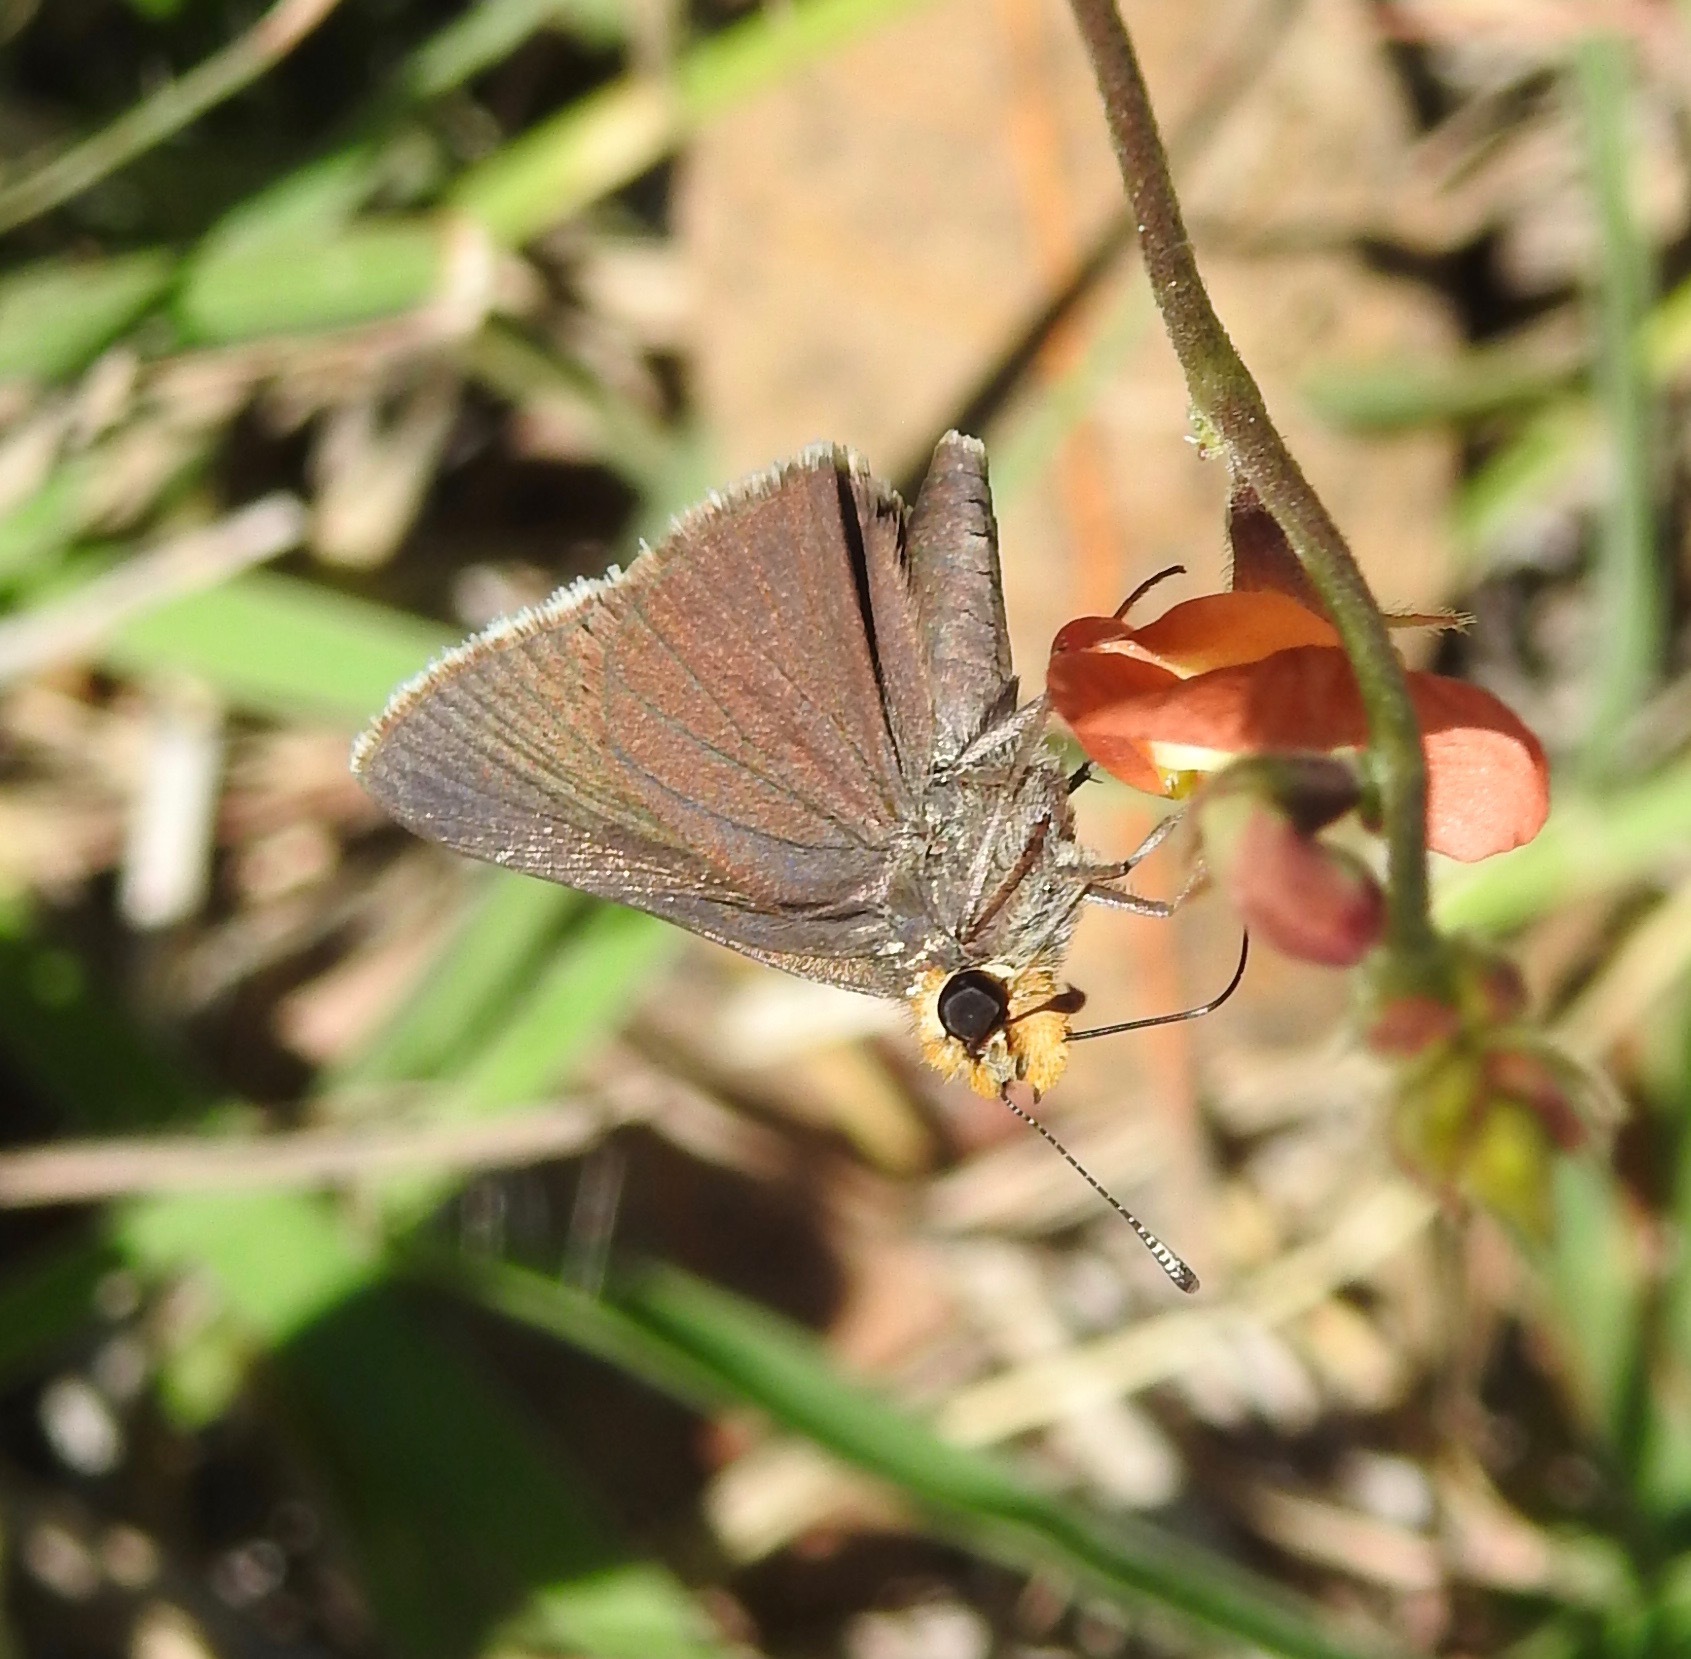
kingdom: Animalia
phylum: Arthropoda
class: Insecta
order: Lepidoptera
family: Hesperiidae
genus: Mastor
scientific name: Mastor phylace
